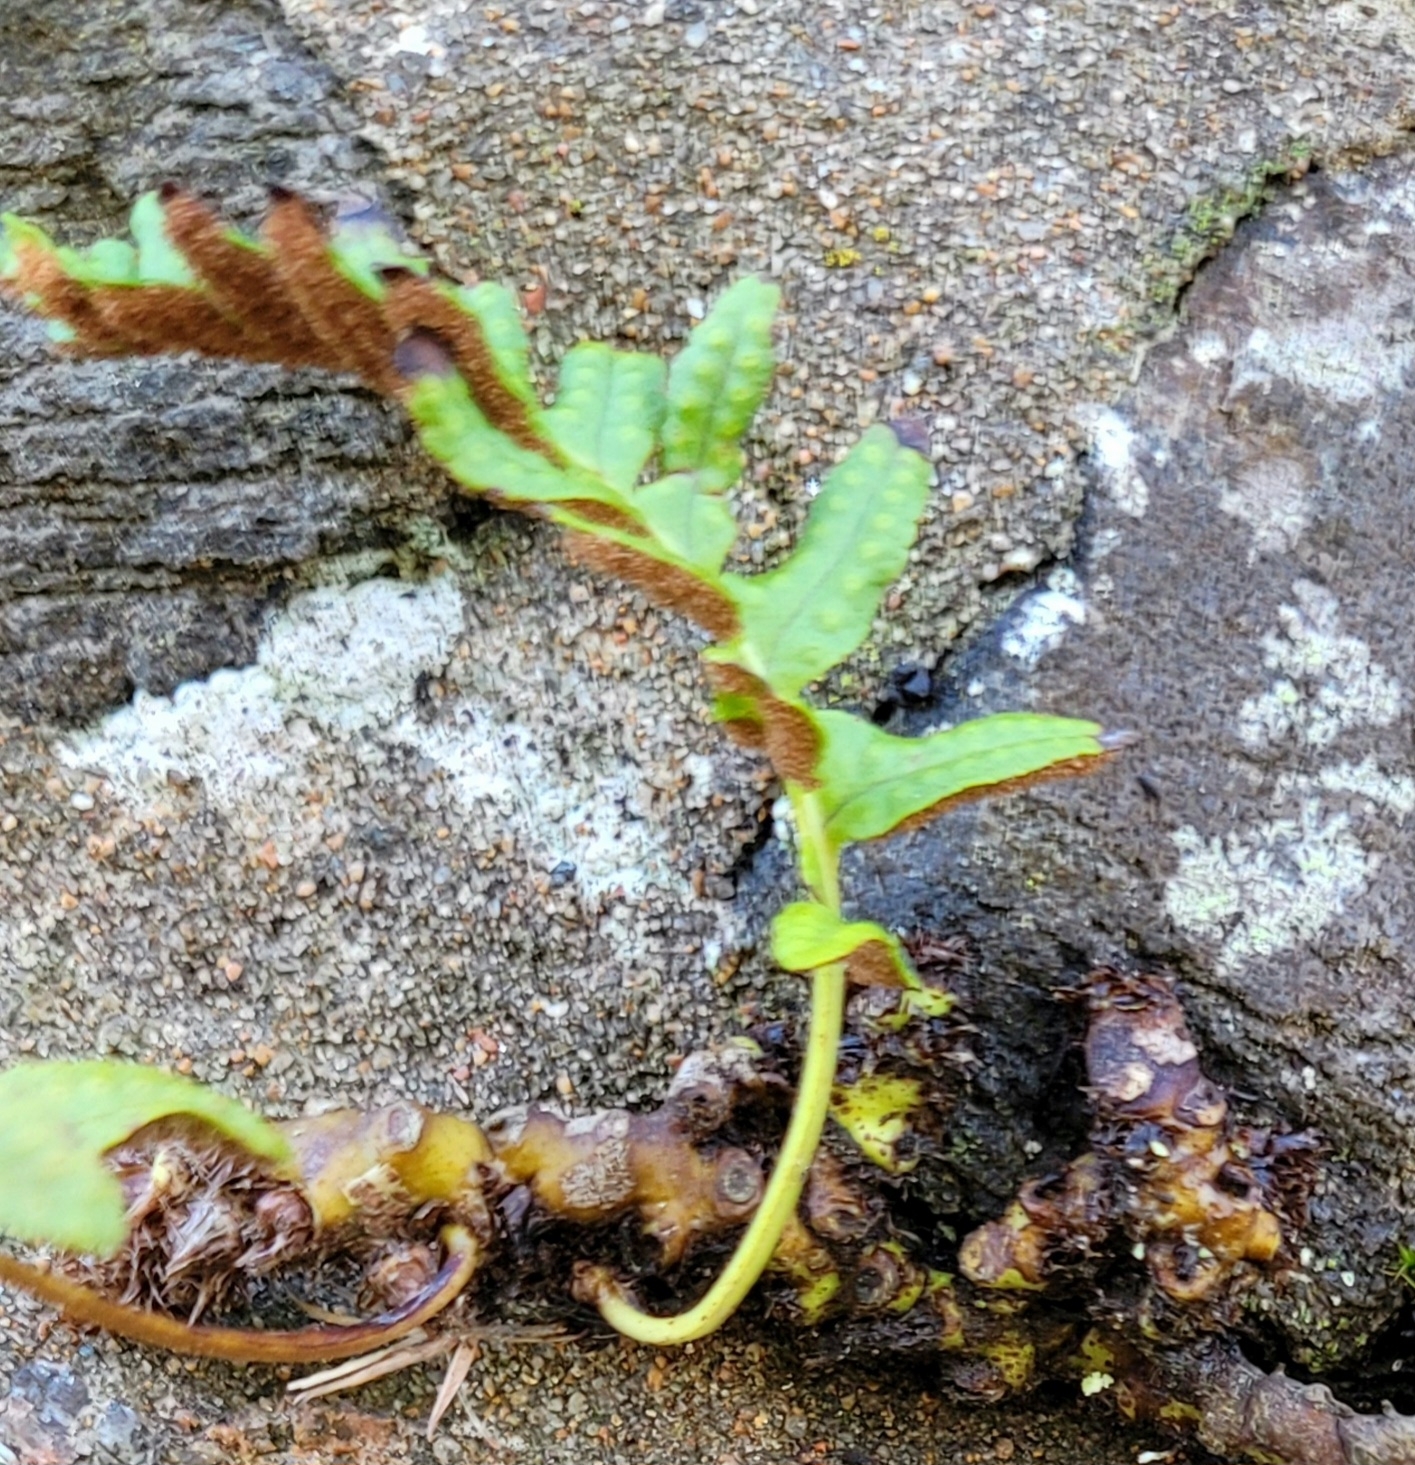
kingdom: Plantae
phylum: Tracheophyta
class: Polypodiopsida
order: Polypodiales
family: Polypodiaceae
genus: Polypodium
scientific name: Polypodium vulgare
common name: Common polypody
